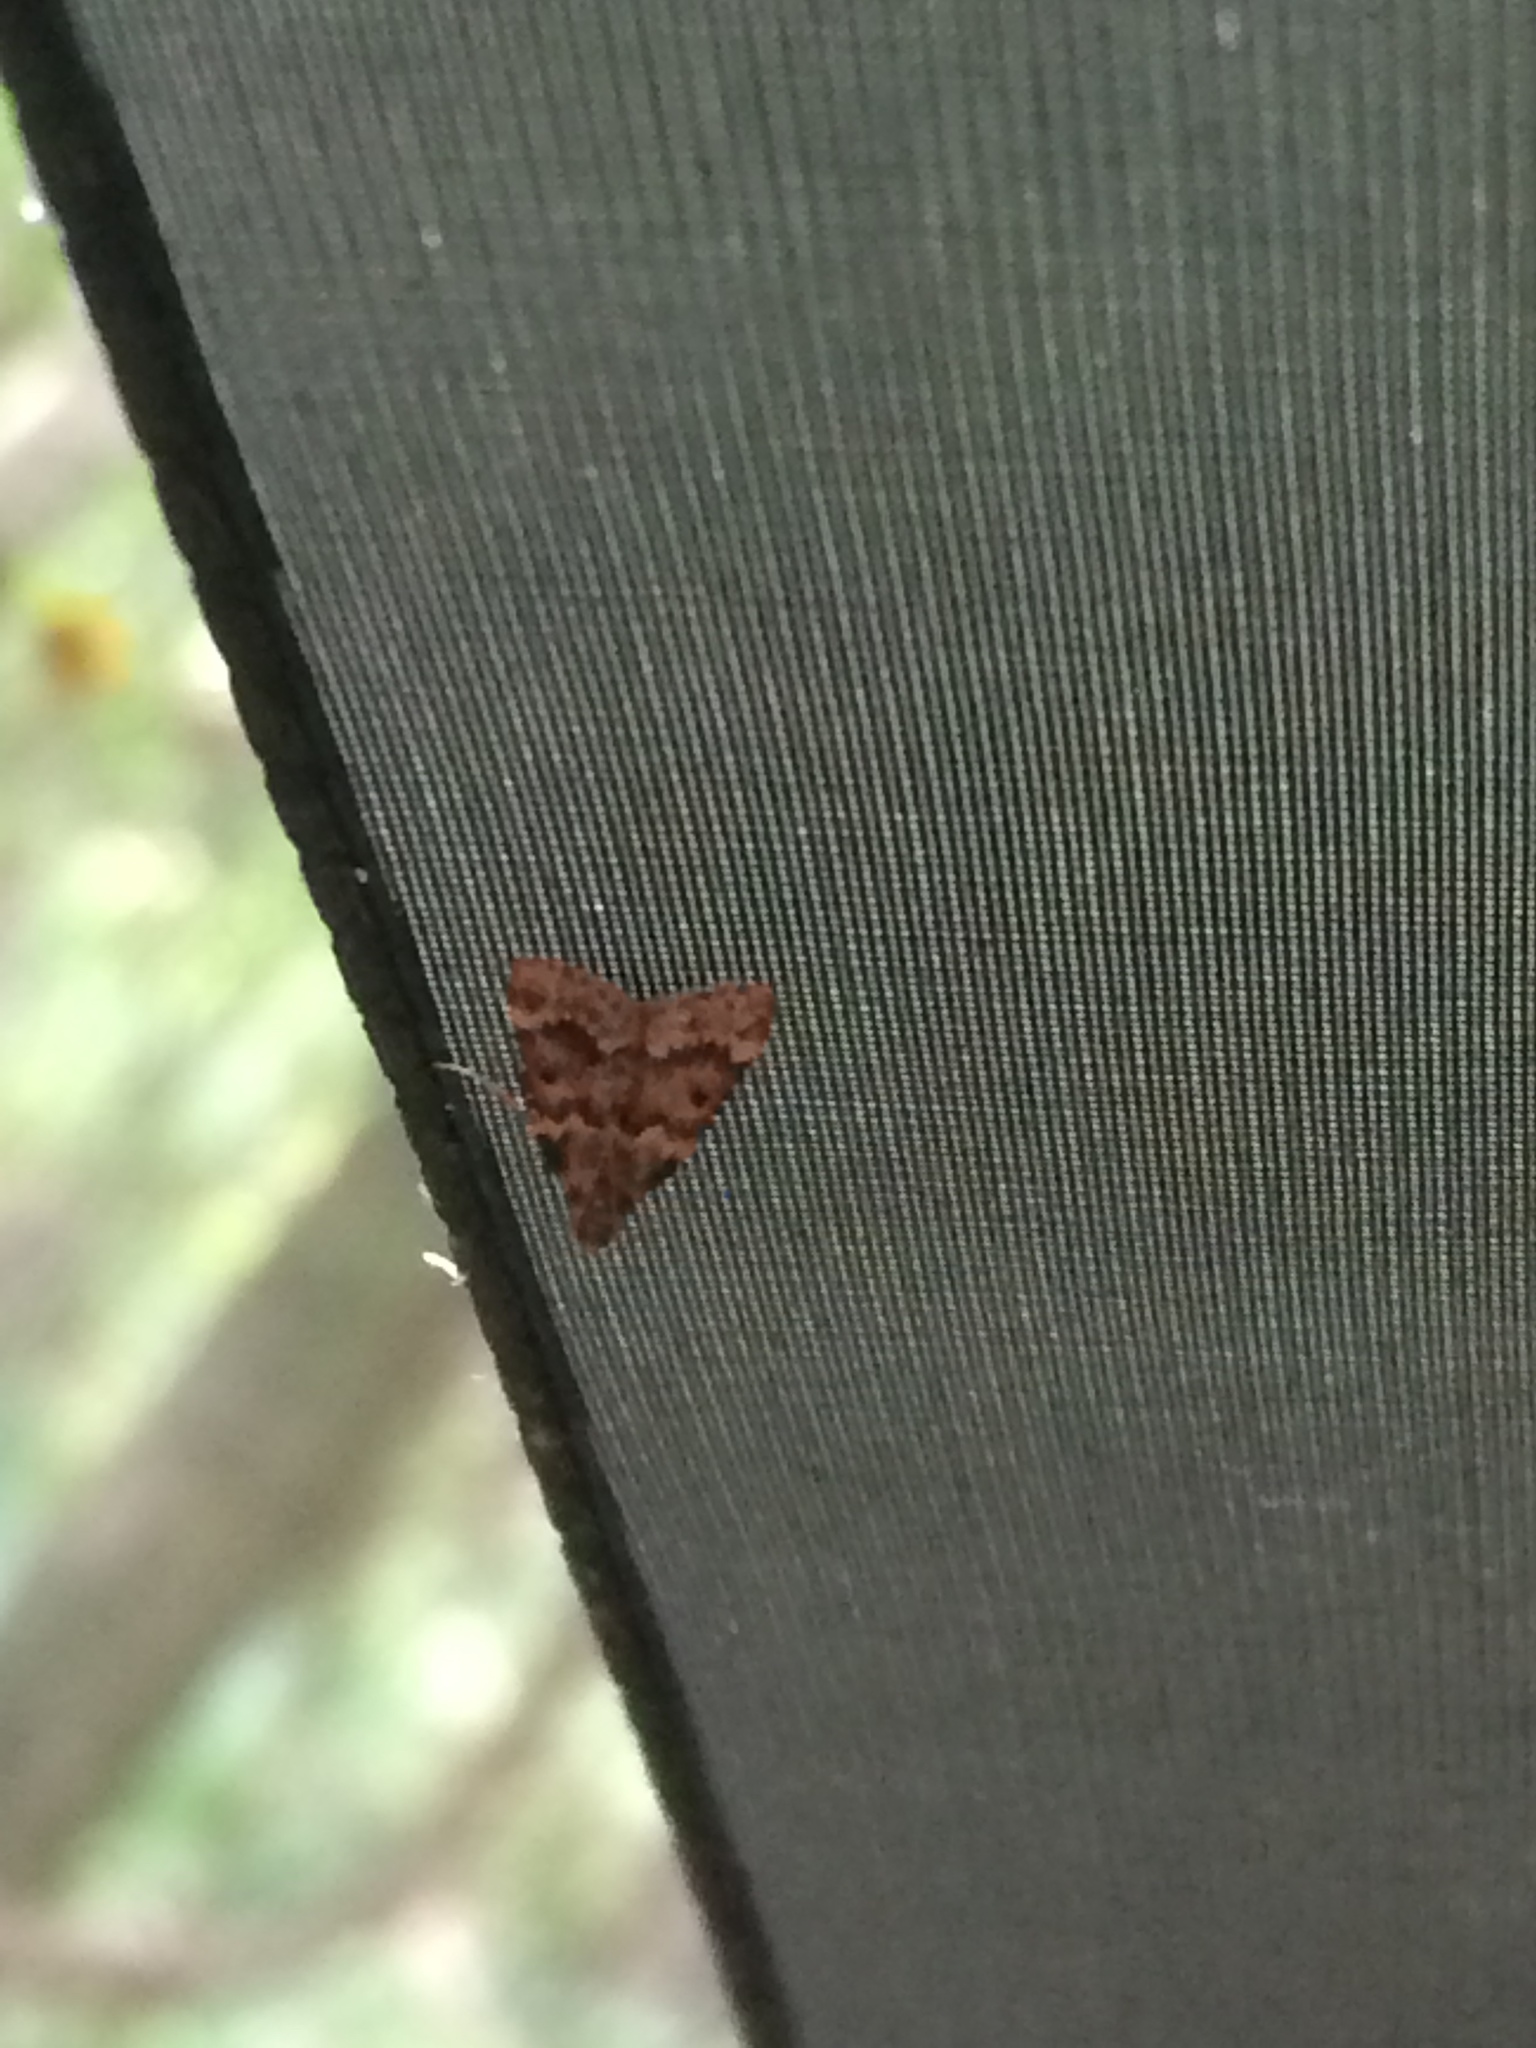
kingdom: Animalia
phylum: Arthropoda
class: Insecta
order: Lepidoptera
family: Pyralidae
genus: Aglossa
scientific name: Aglossa disciferalis
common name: Pink-masked pyralid moth
